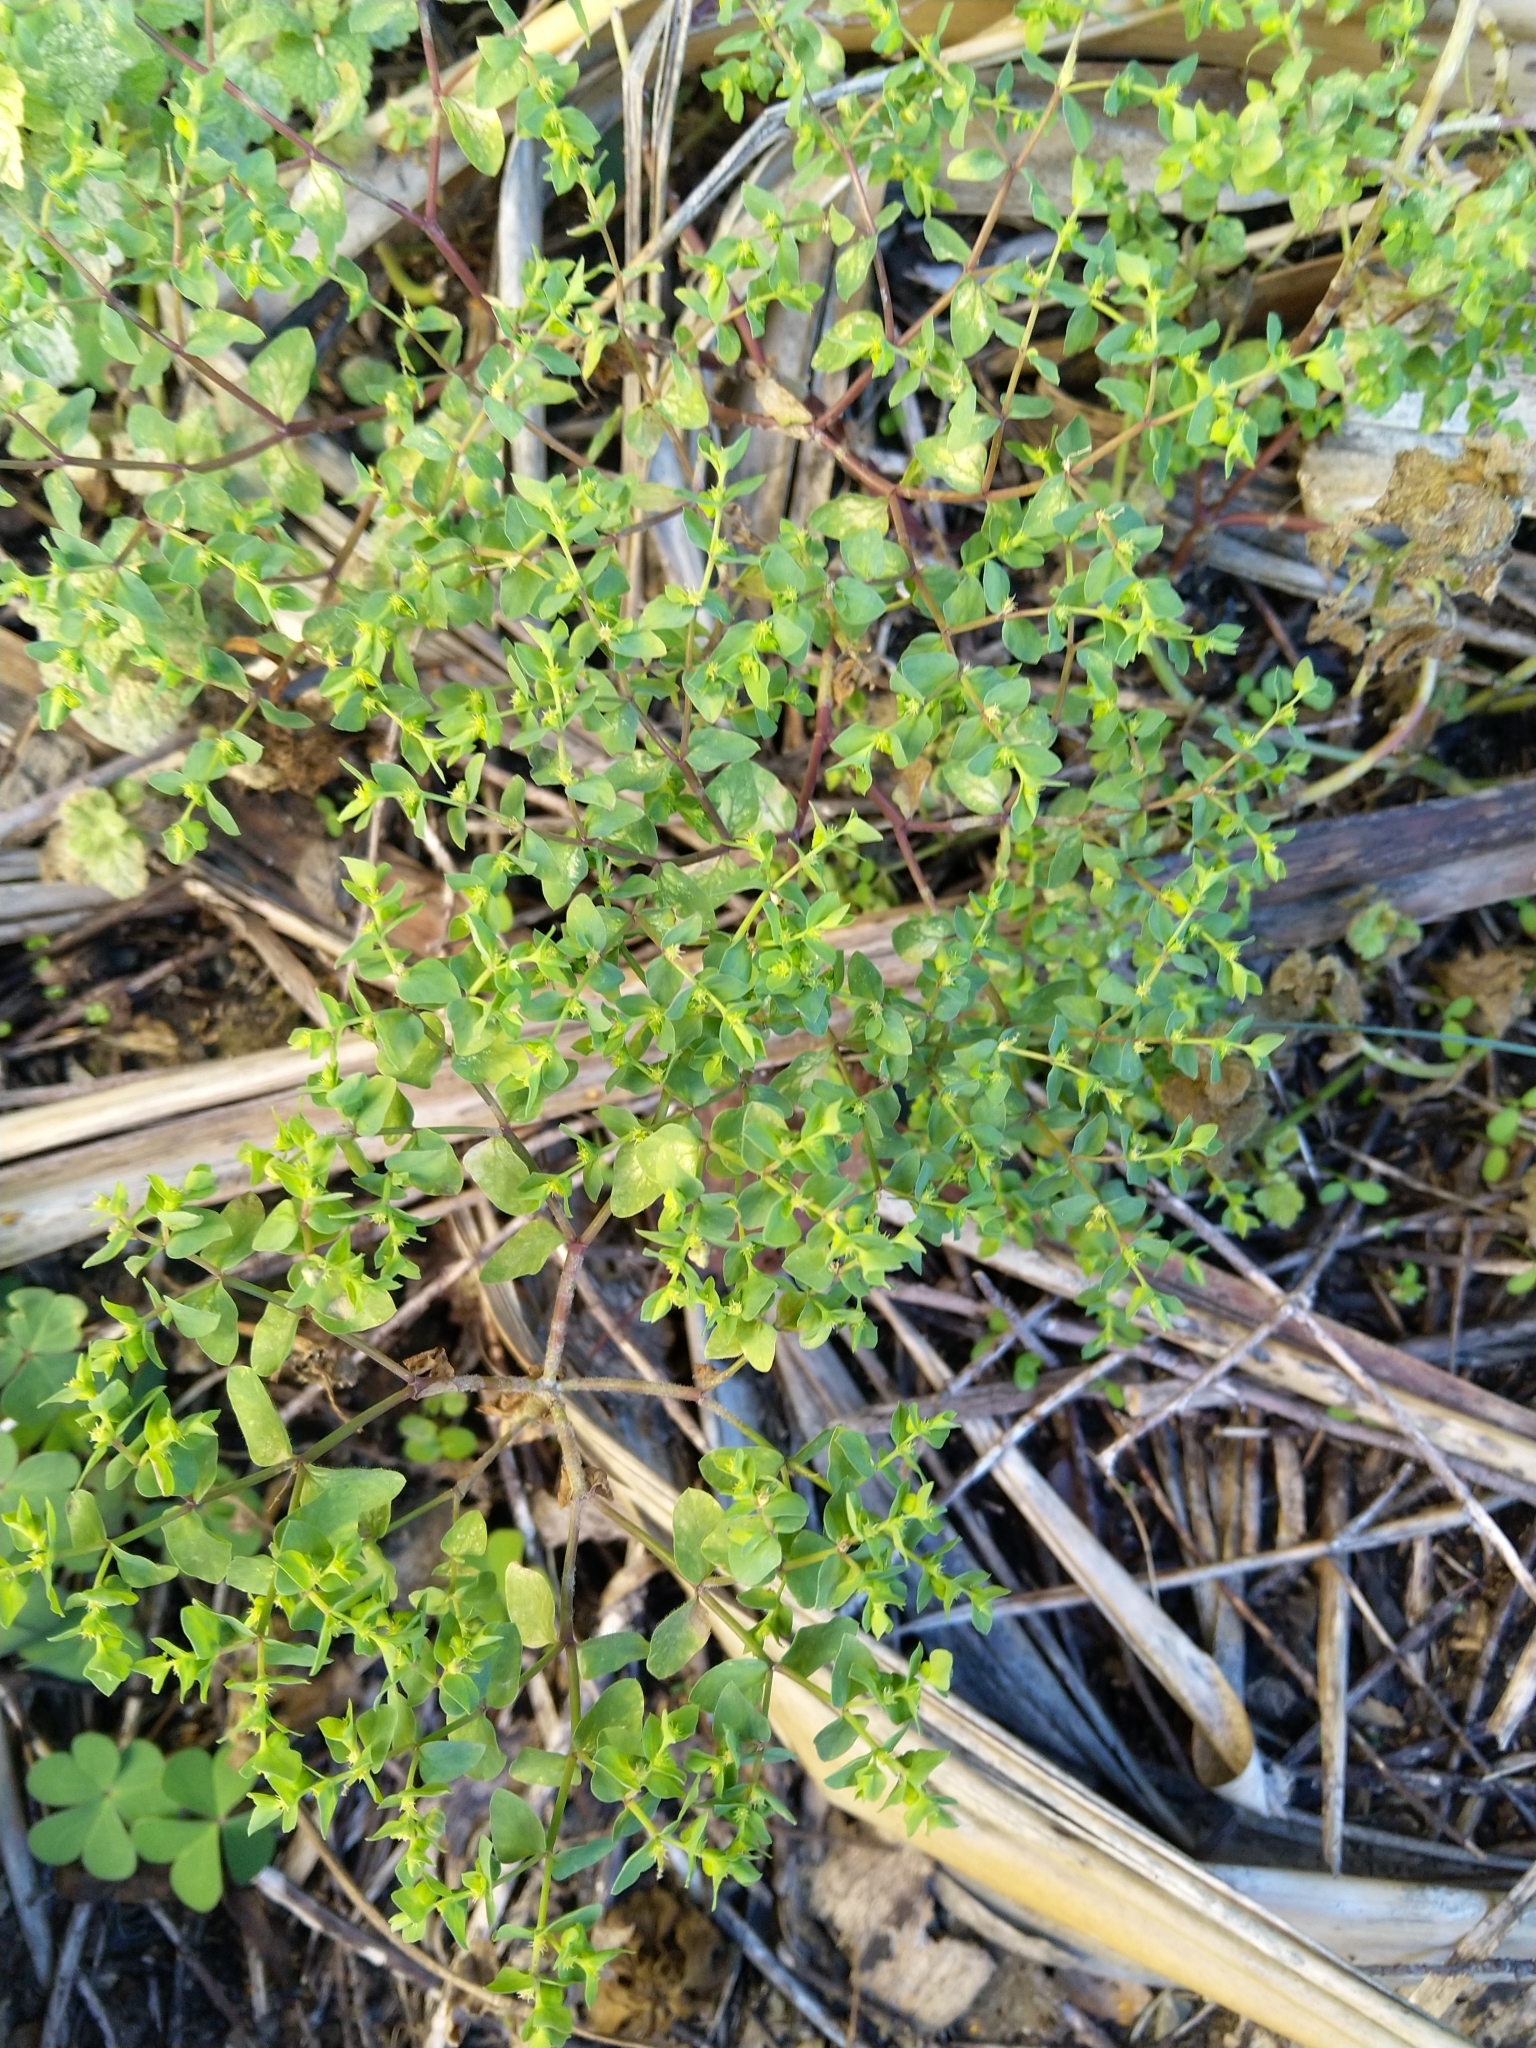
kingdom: Plantae
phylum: Tracheophyta
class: Magnoliopsida
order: Malpighiales
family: Euphorbiaceae
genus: Euphorbia
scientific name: Euphorbia peplus
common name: Petty spurge
